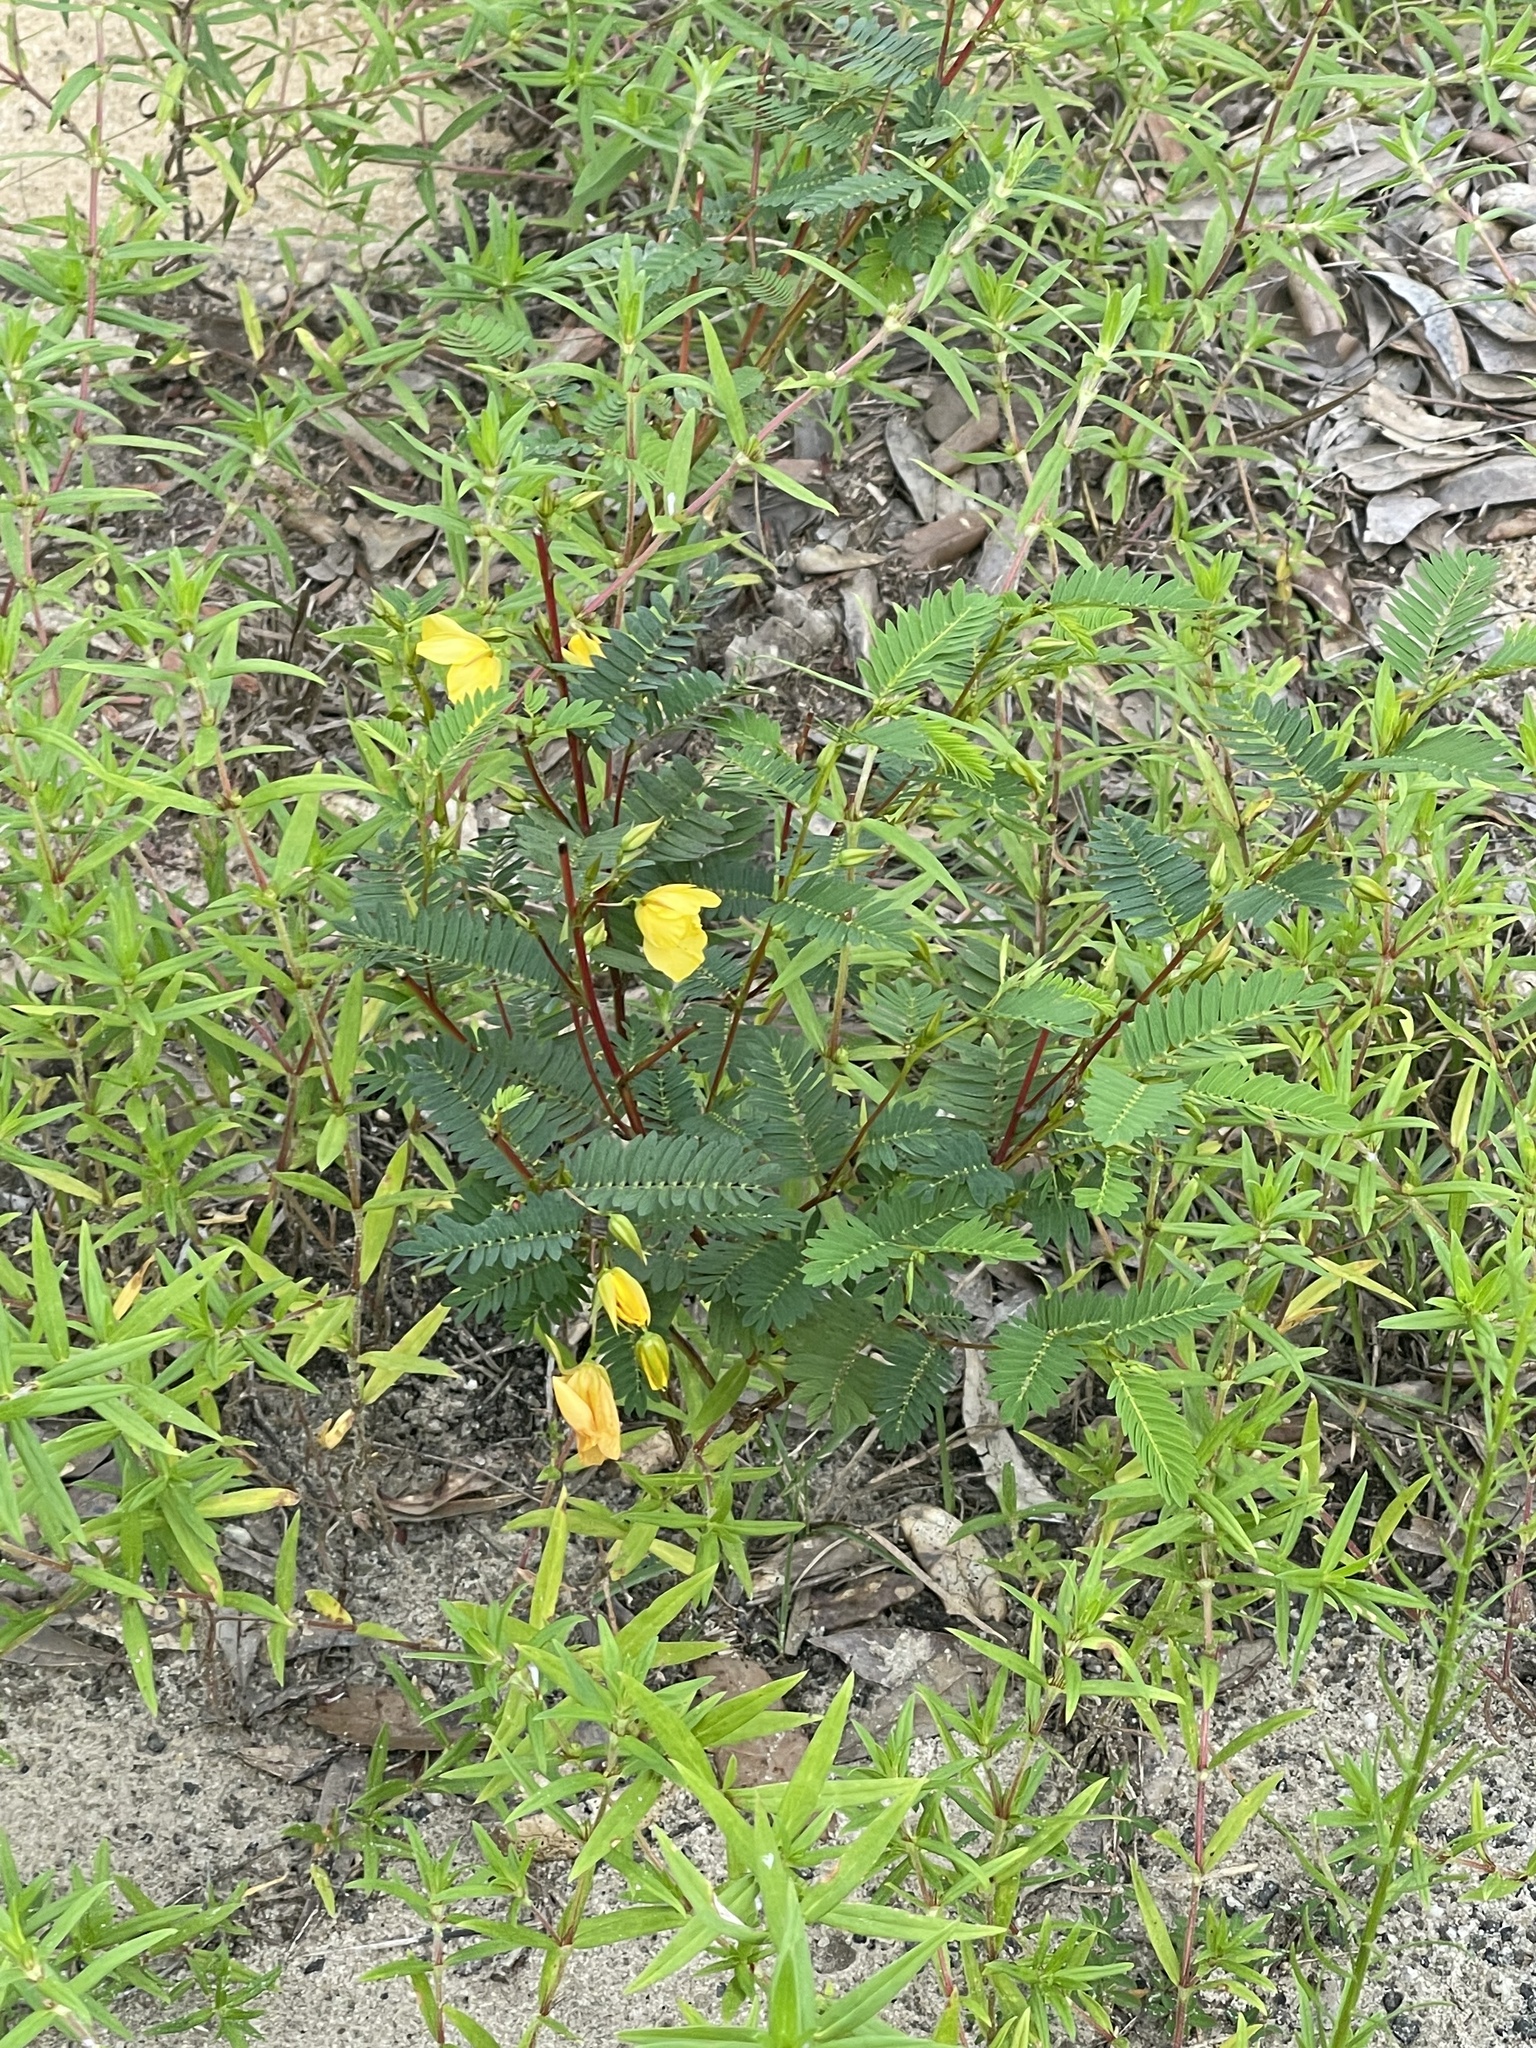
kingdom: Plantae
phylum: Tracheophyta
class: Magnoliopsida
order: Fabales
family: Fabaceae
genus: Chamaecrista
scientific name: Chamaecrista fasciculata
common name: Golden cassia
